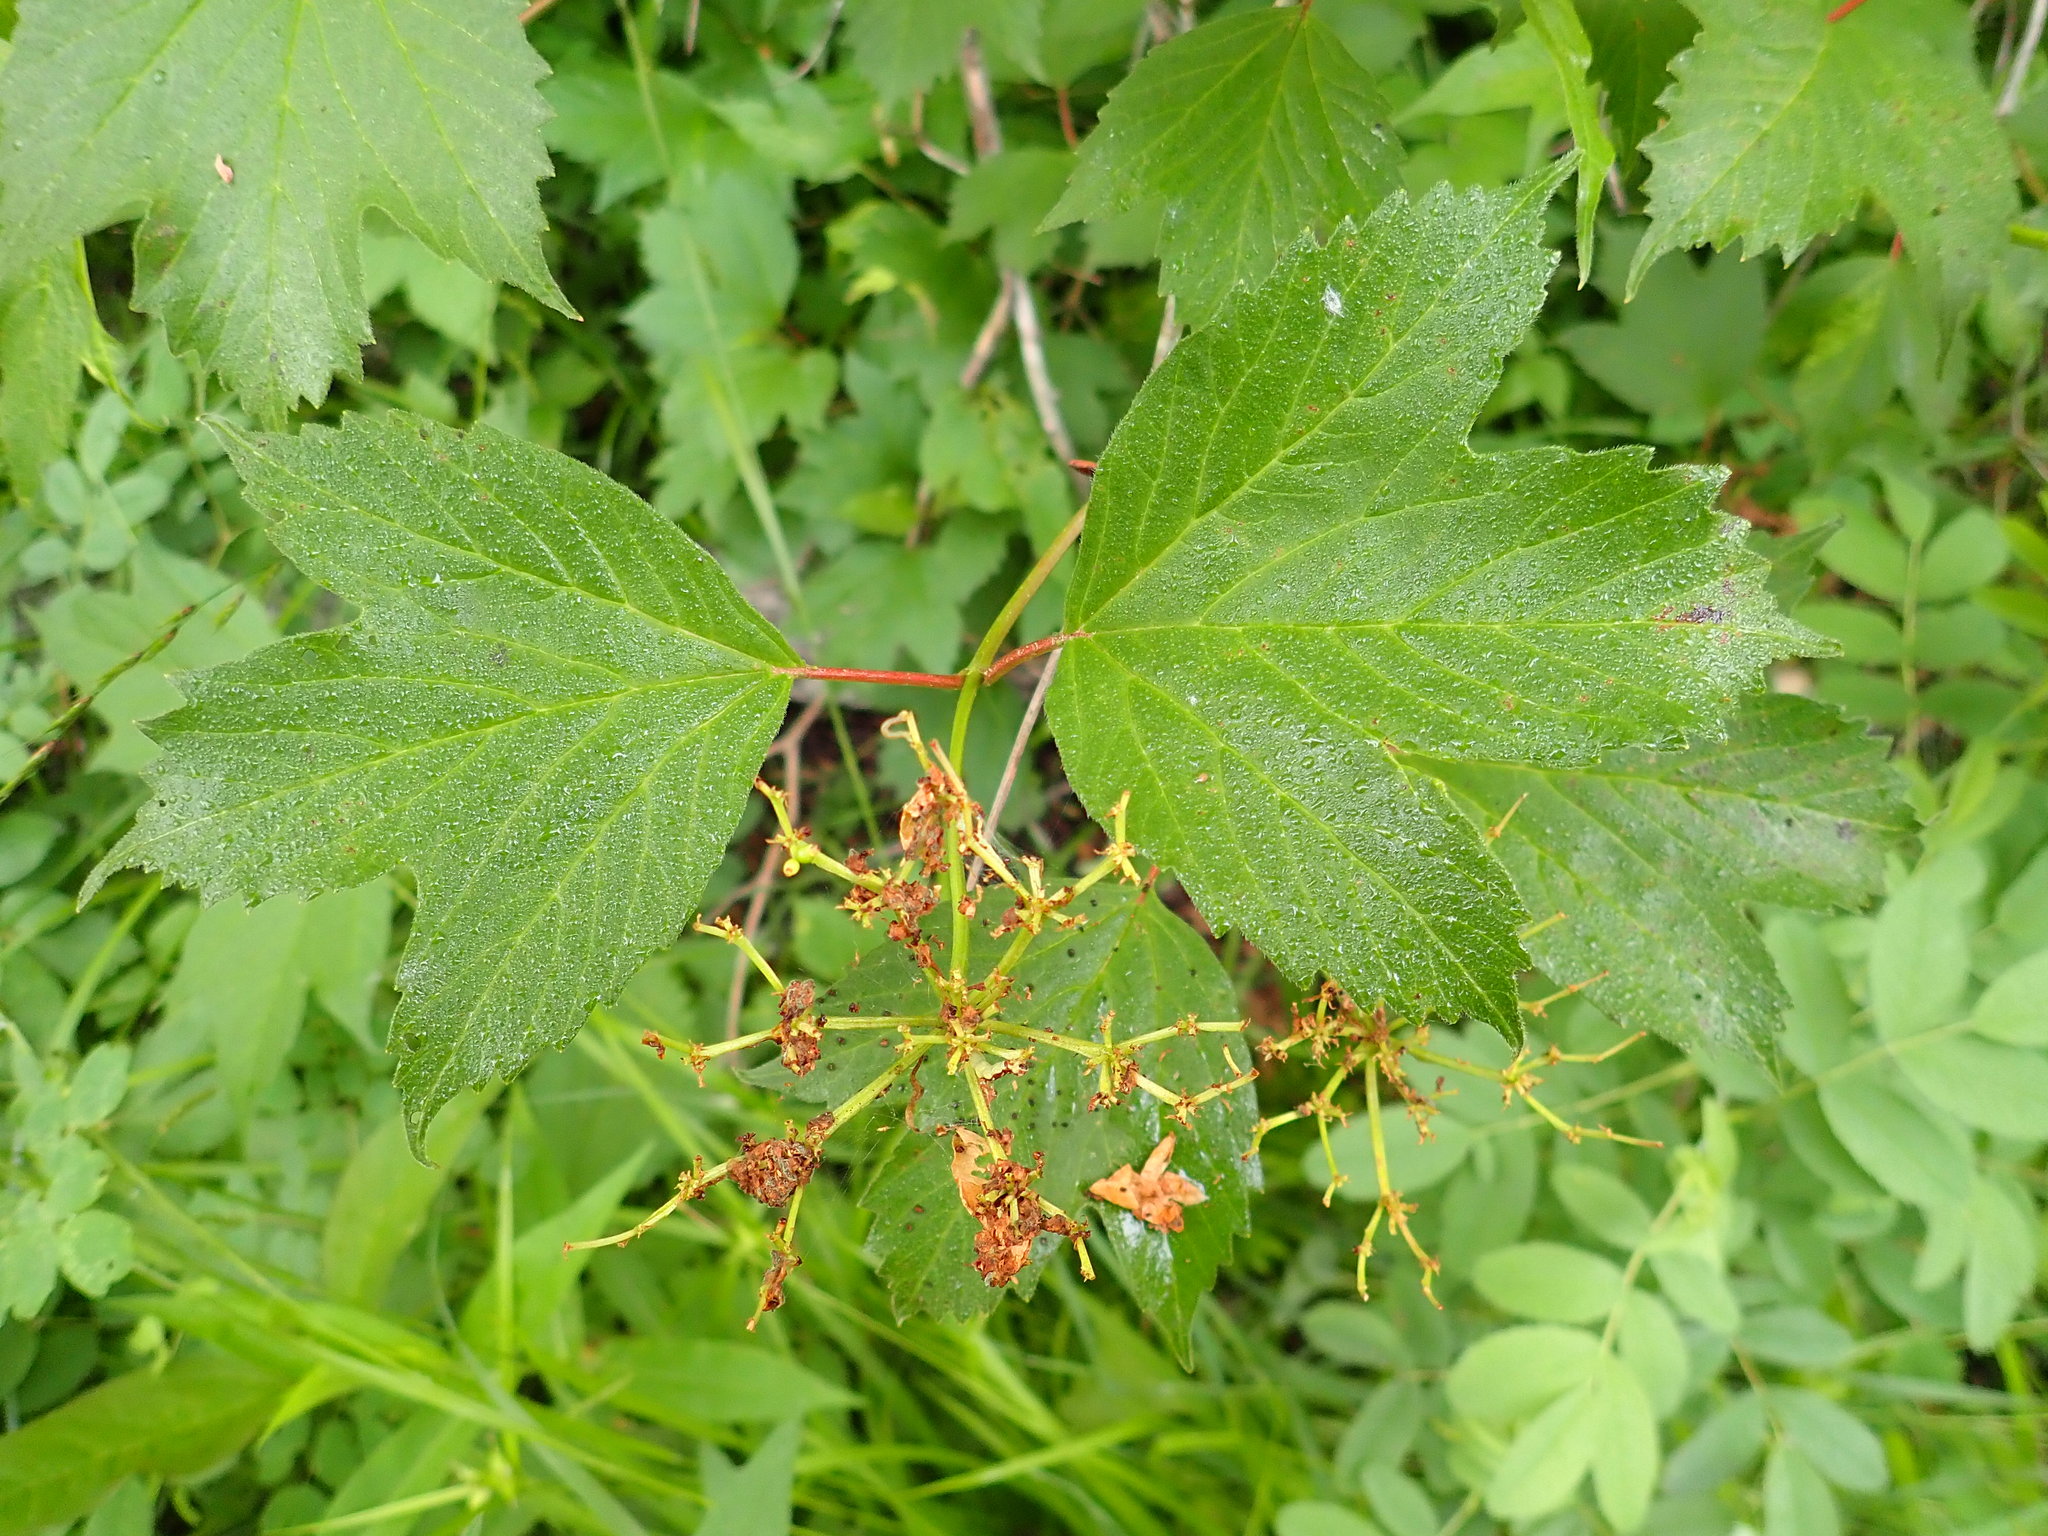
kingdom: Plantae
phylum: Tracheophyta
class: Magnoliopsida
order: Dipsacales
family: Viburnaceae
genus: Viburnum
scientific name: Viburnum opulus
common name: Guelder-rose
